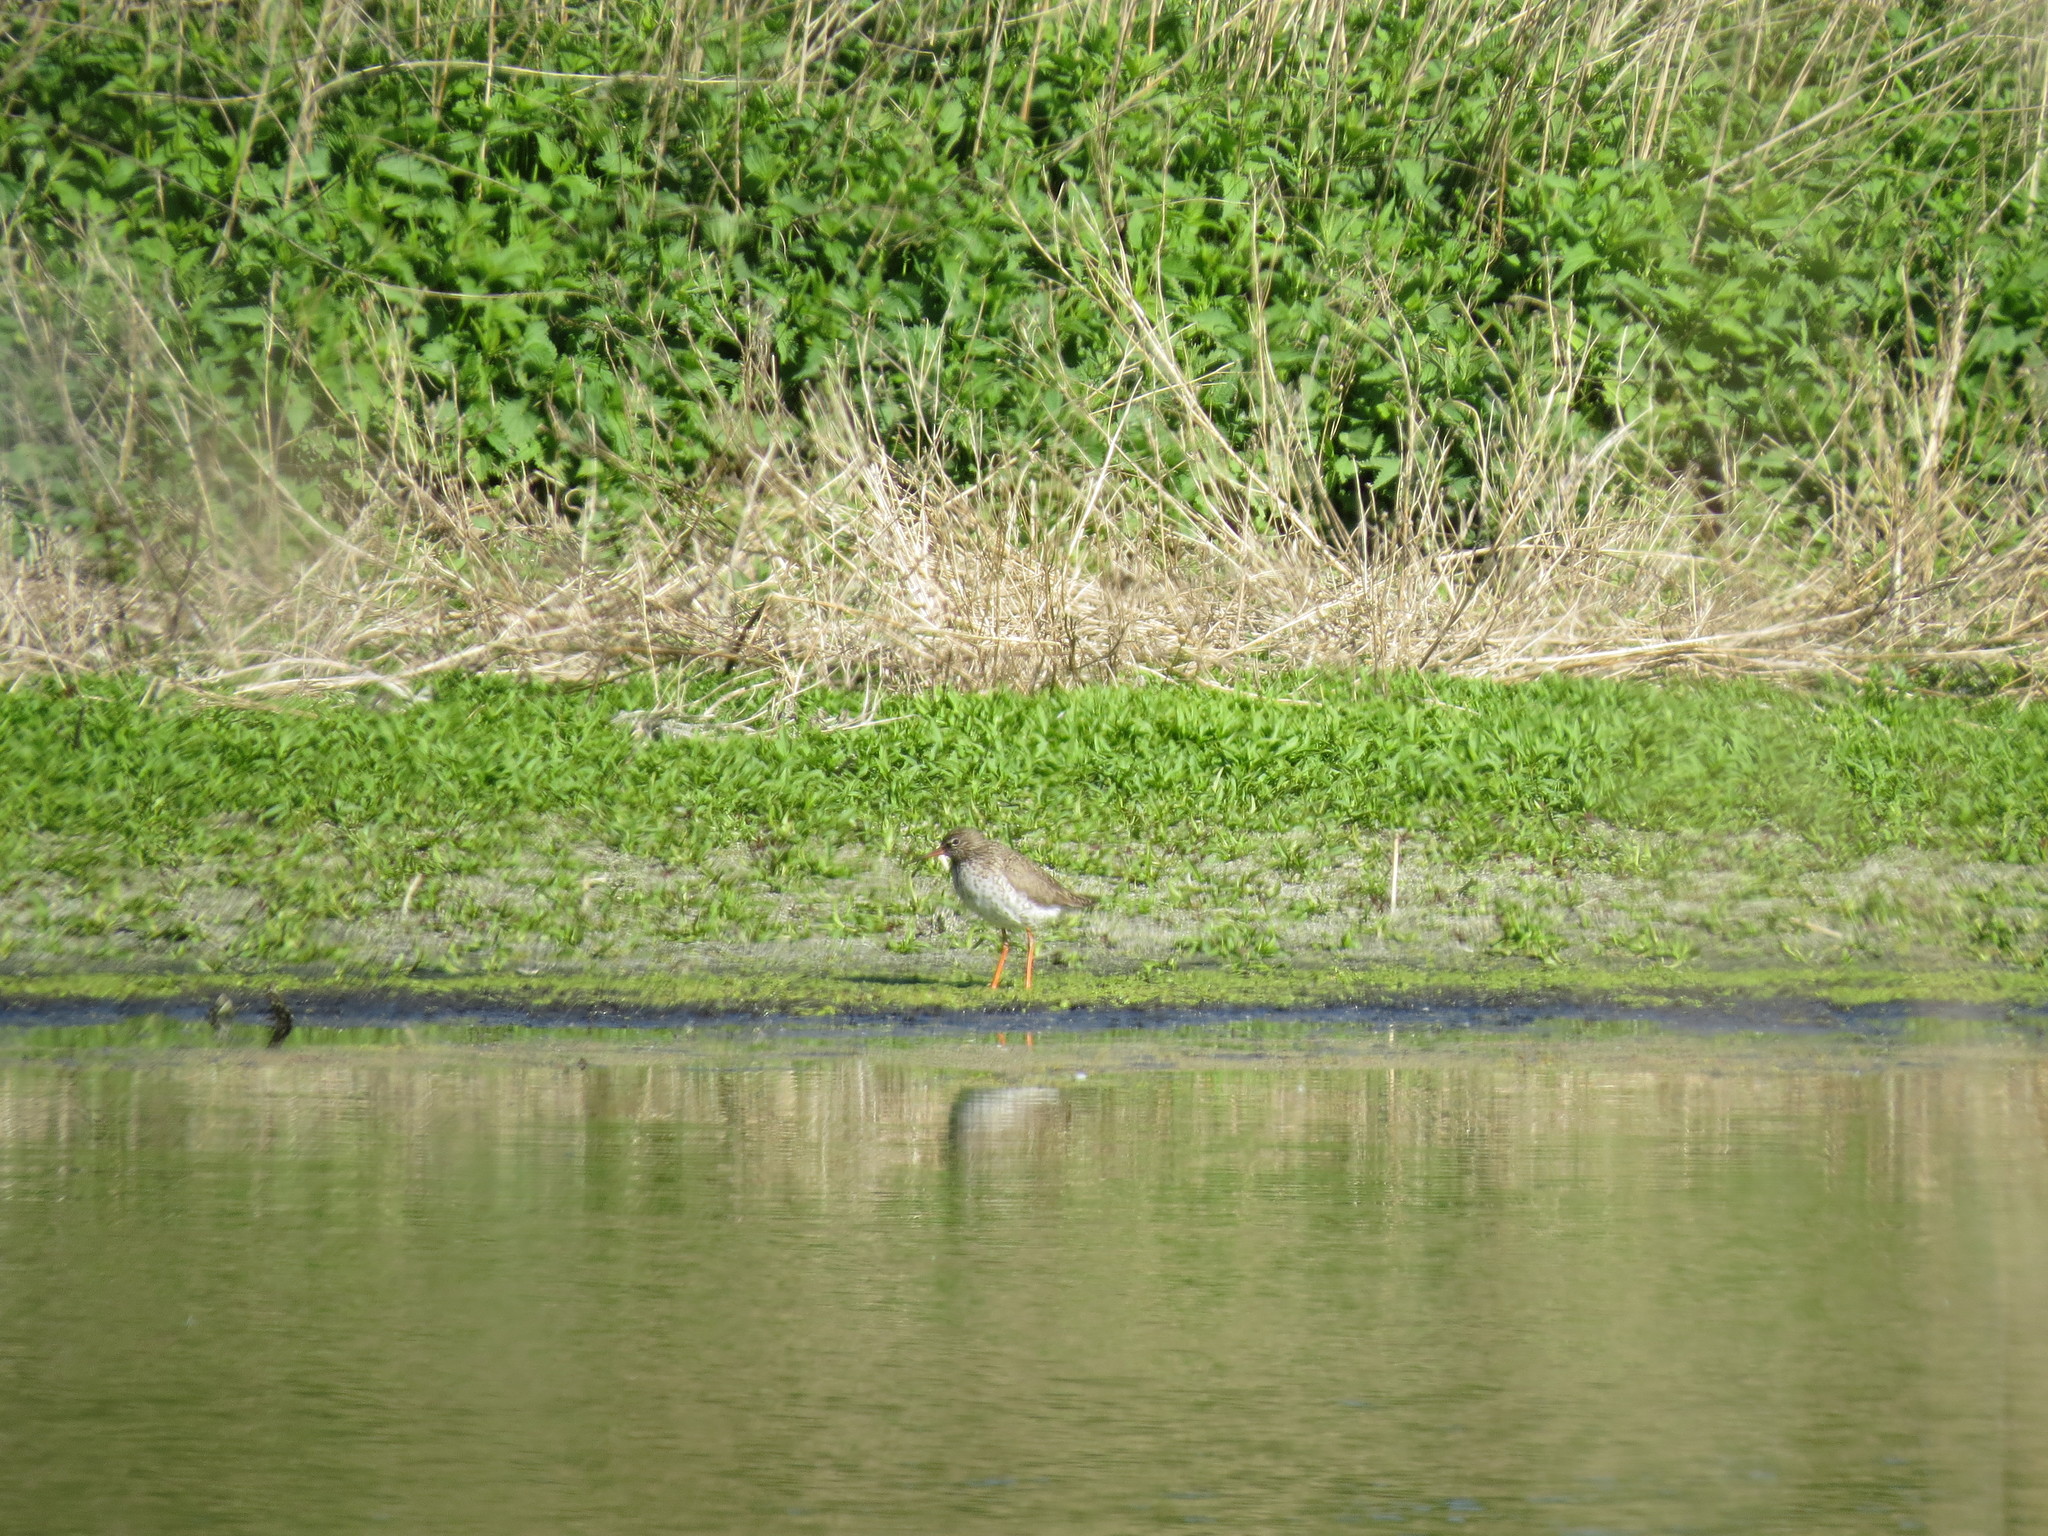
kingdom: Animalia
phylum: Chordata
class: Aves
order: Charadriiformes
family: Scolopacidae
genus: Tringa
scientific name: Tringa totanus
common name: Common redshank
